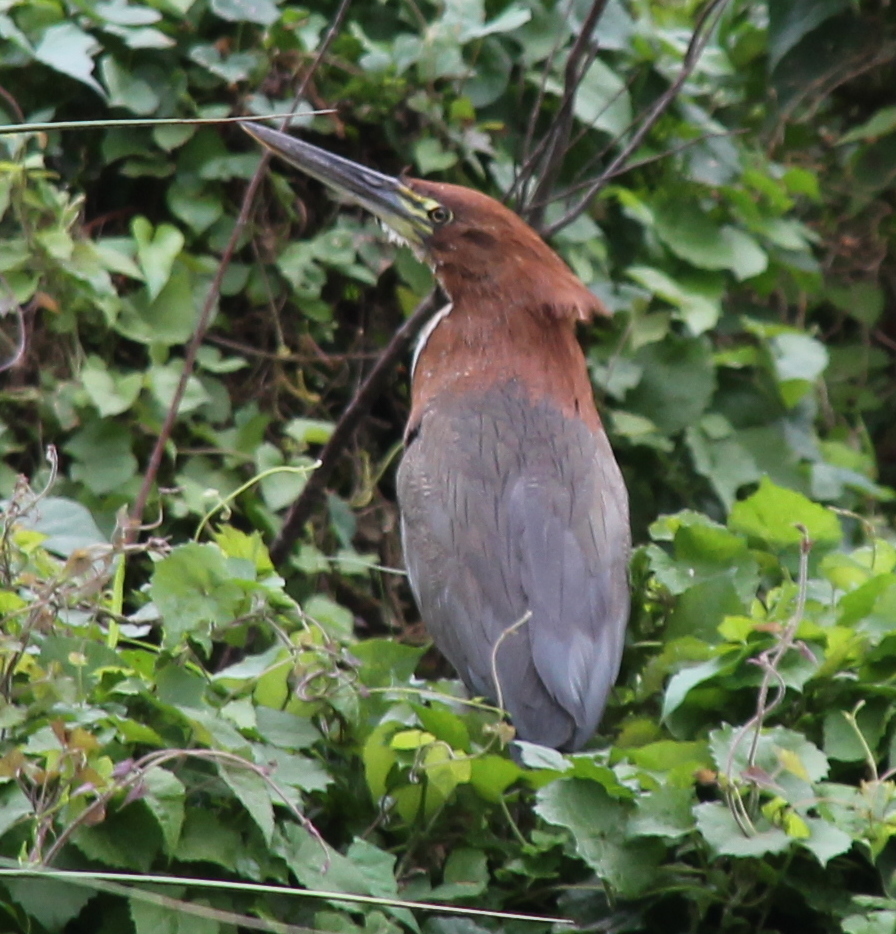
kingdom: Animalia
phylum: Chordata
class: Aves
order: Pelecaniformes
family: Ardeidae
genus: Tigrisoma
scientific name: Tigrisoma lineatum
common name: Rufescent tiger-heron
